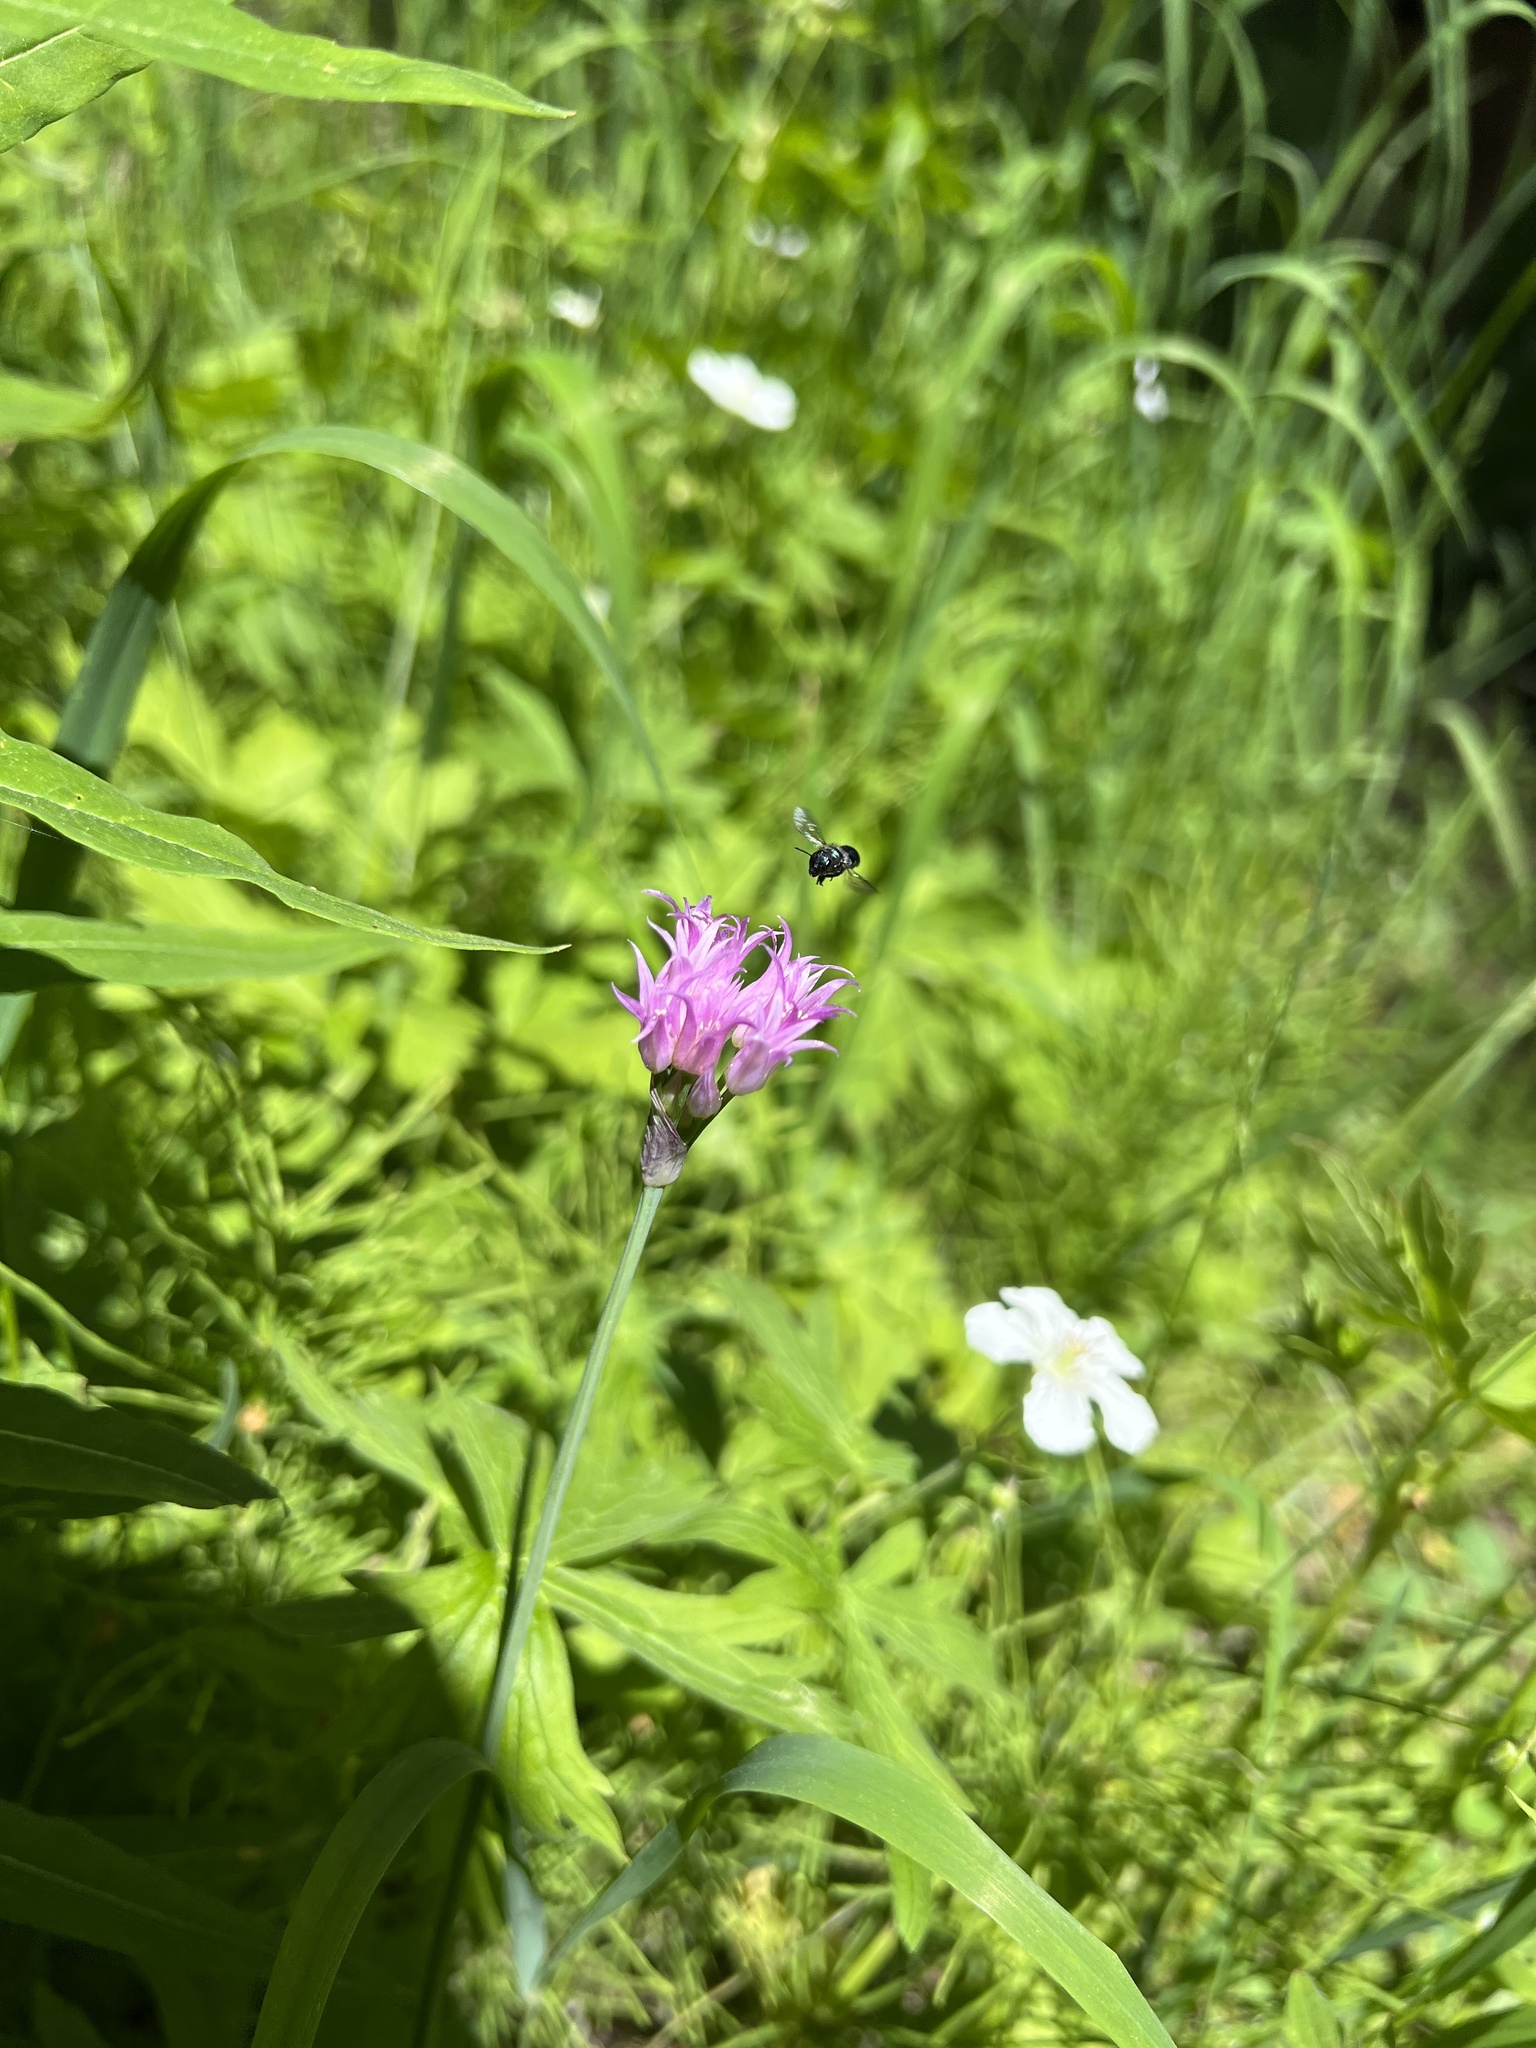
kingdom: Plantae
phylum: Tracheophyta
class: Liliopsida
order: Asparagales
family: Amaryllidaceae
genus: Allium
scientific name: Allium brevistylum
